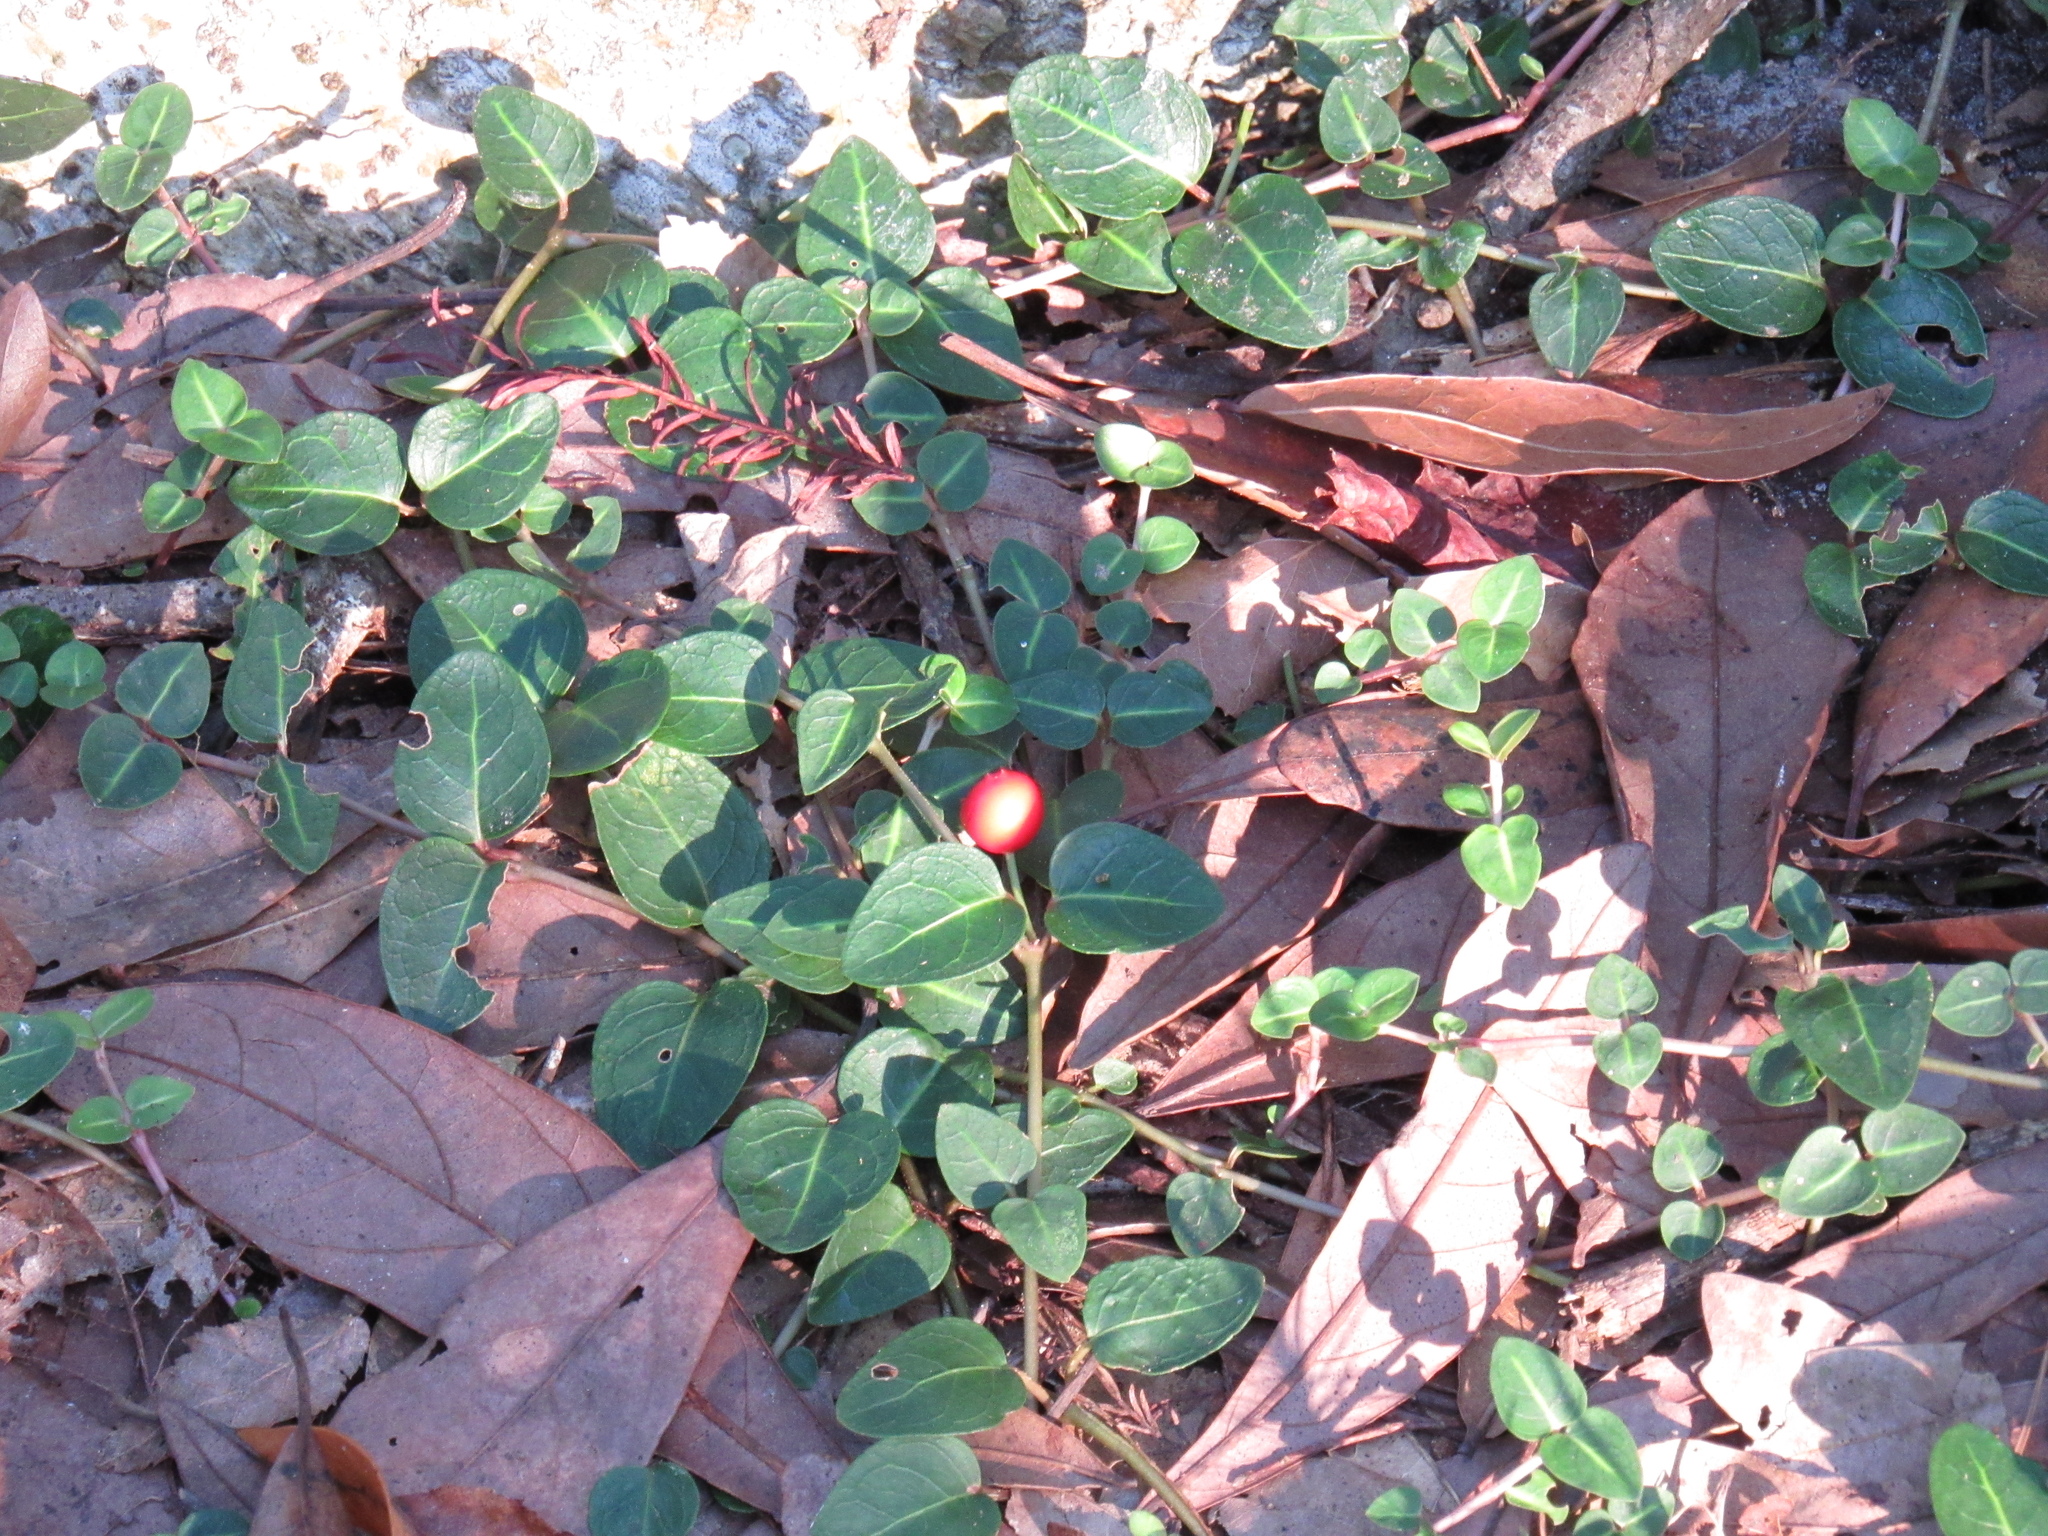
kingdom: Plantae
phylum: Tracheophyta
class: Magnoliopsida
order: Gentianales
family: Rubiaceae
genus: Mitchella
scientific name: Mitchella repens
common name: Partridge-berry
